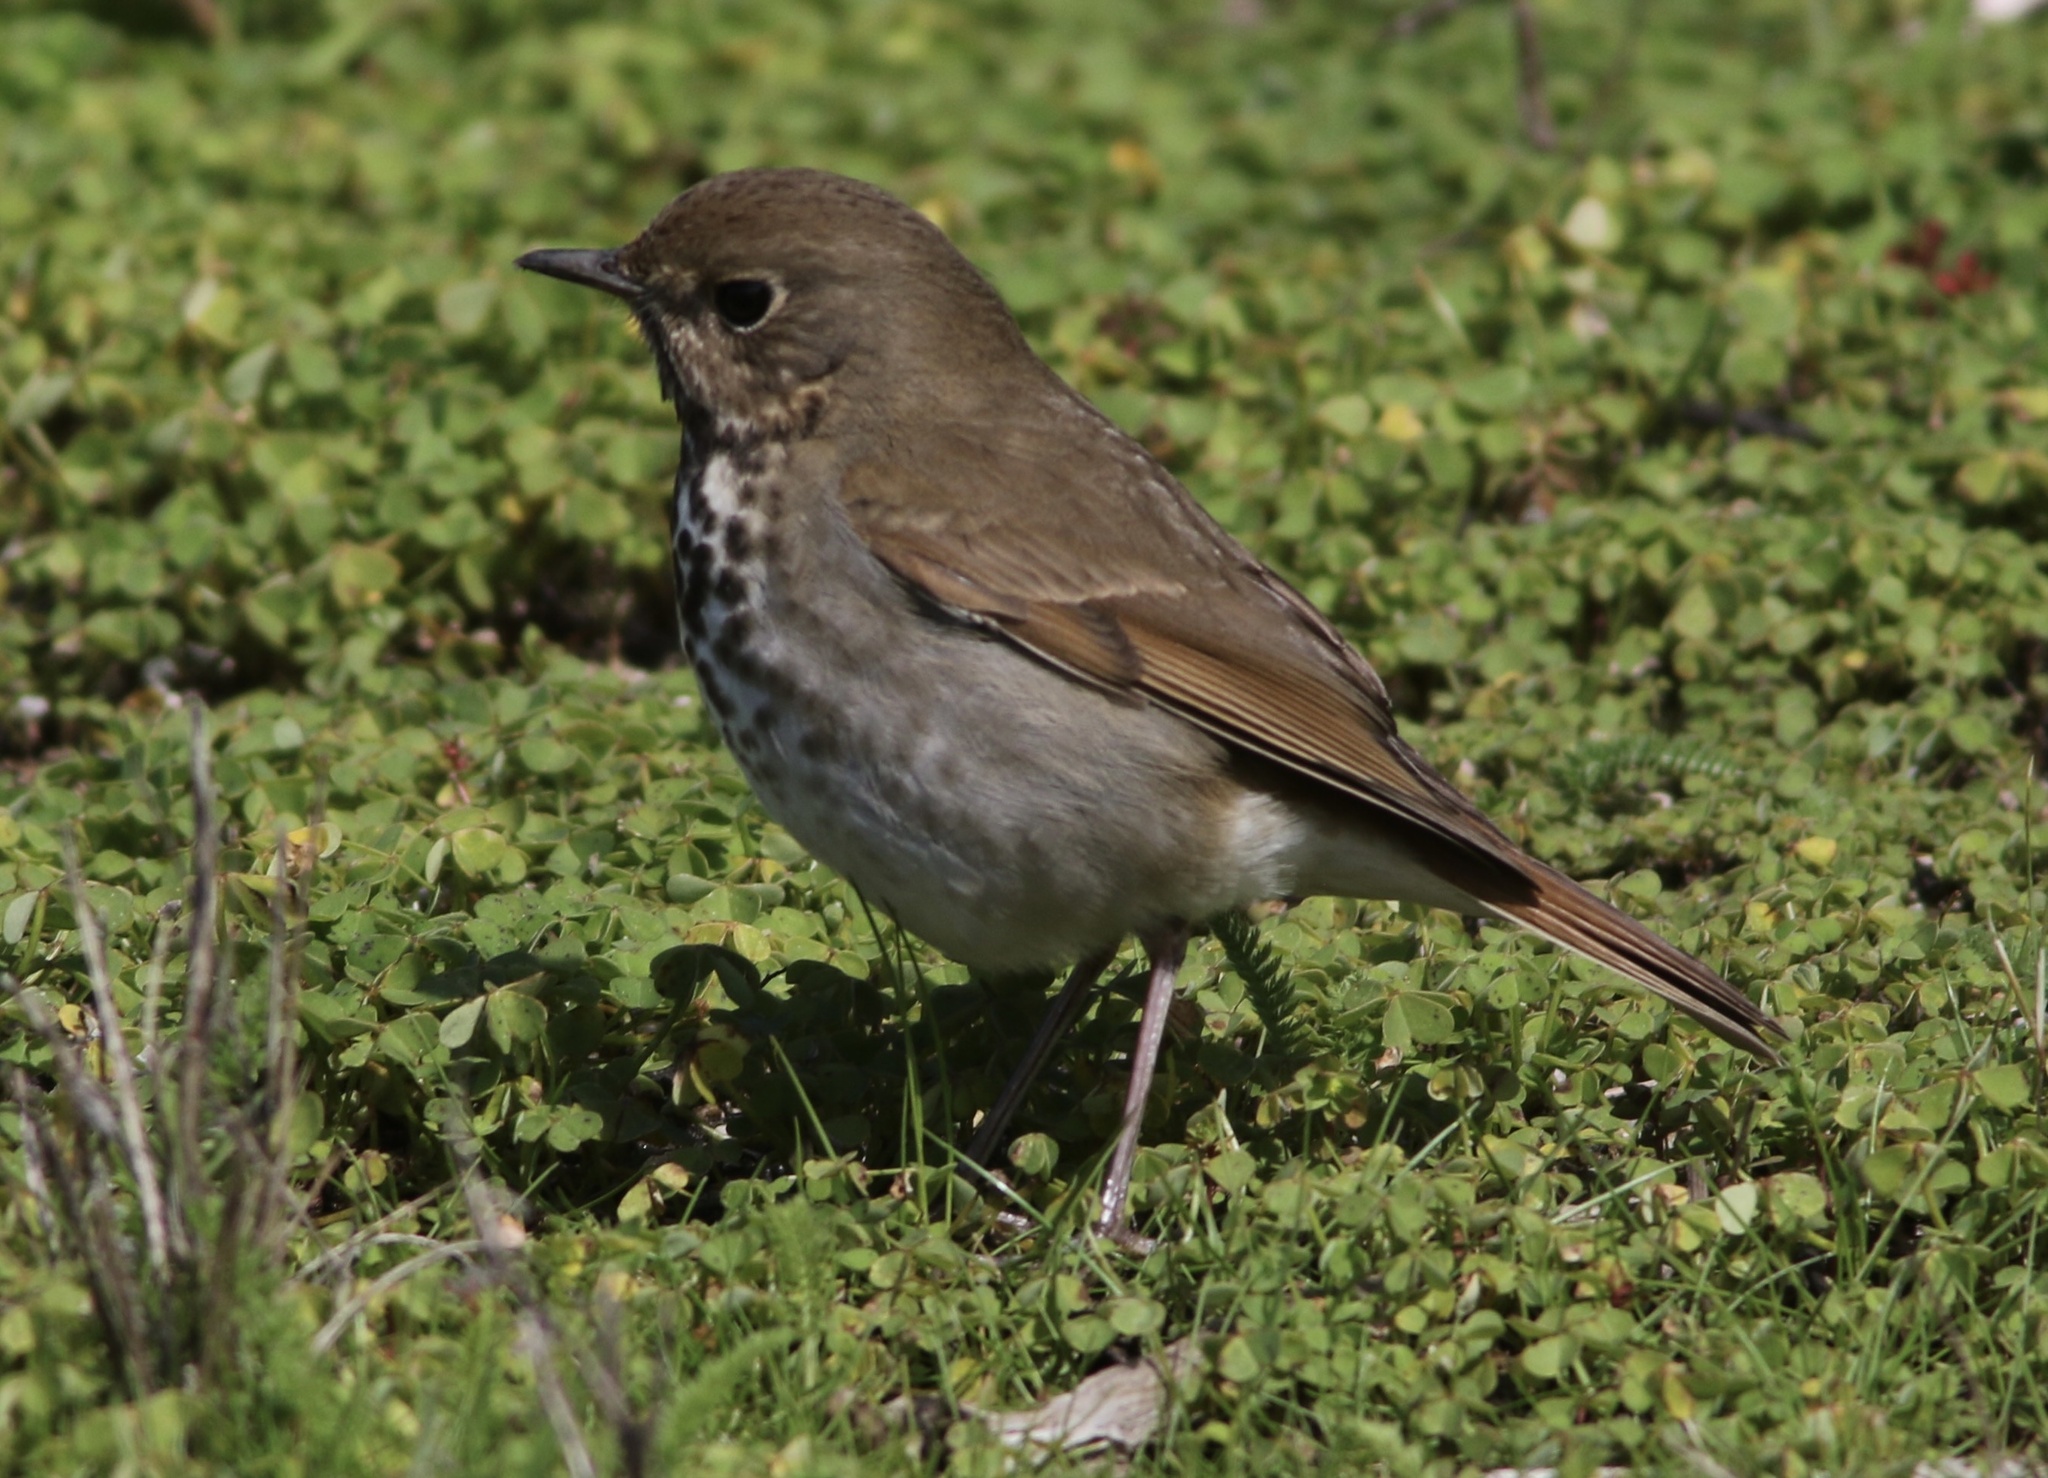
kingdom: Animalia
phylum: Chordata
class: Aves
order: Passeriformes
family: Turdidae
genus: Catharus
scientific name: Catharus guttatus
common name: Hermit thrush
